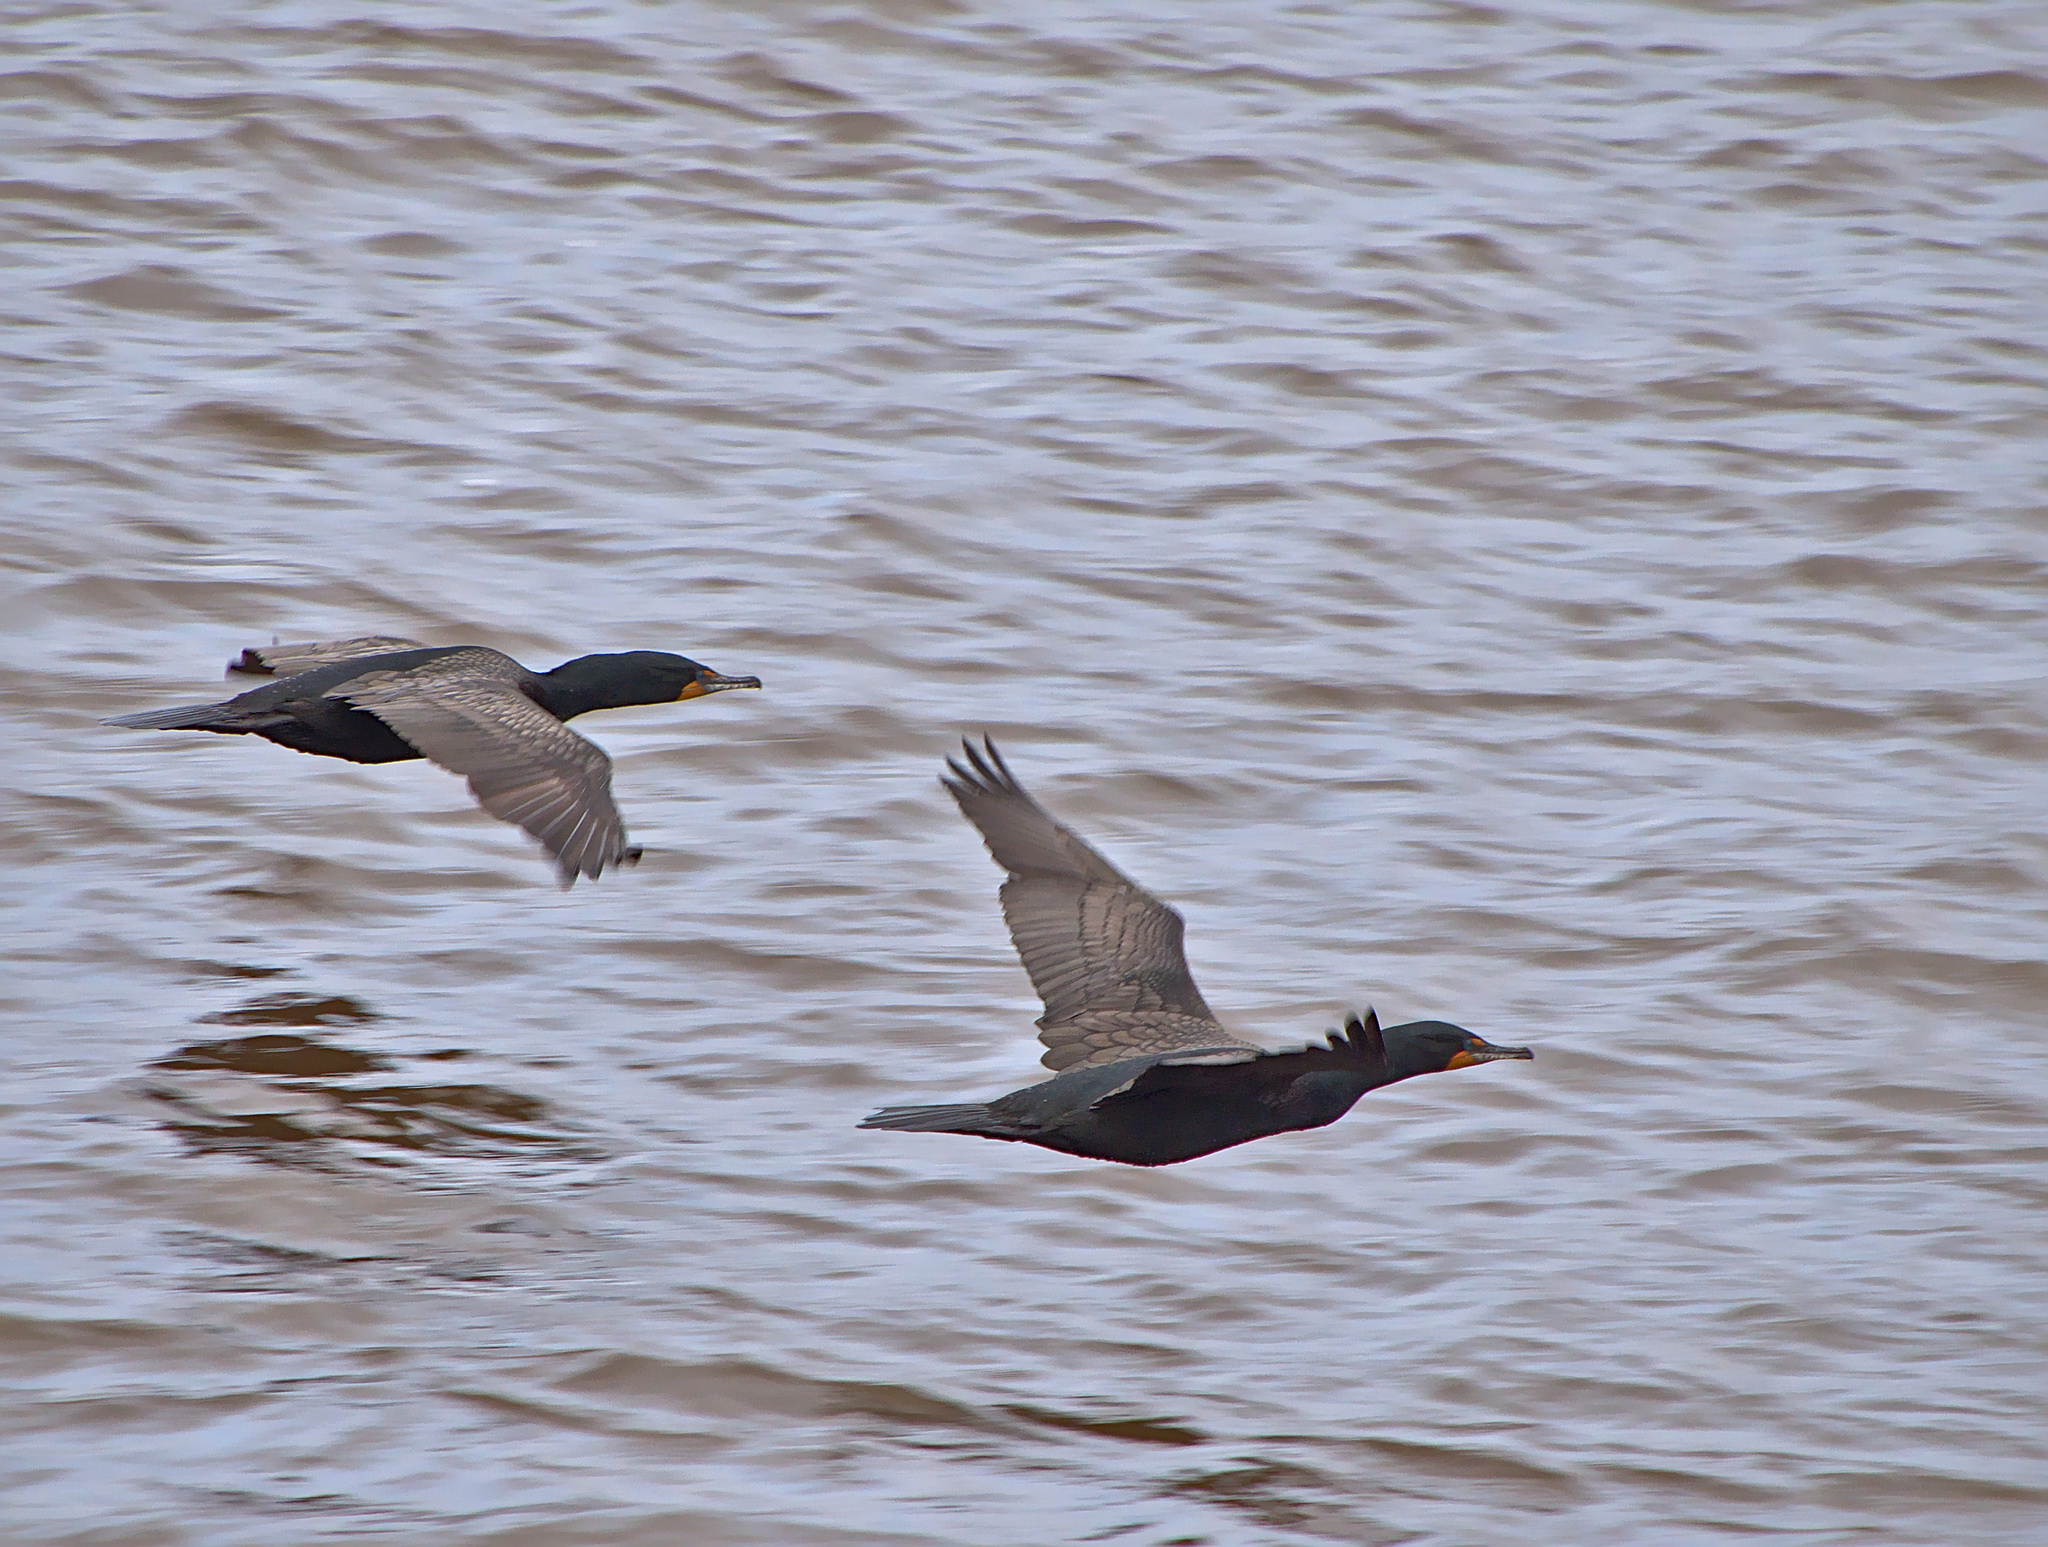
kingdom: Animalia
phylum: Chordata
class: Aves
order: Suliformes
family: Phalacrocoracidae
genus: Phalacrocorax
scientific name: Phalacrocorax auritus
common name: Double-crested cormorant
